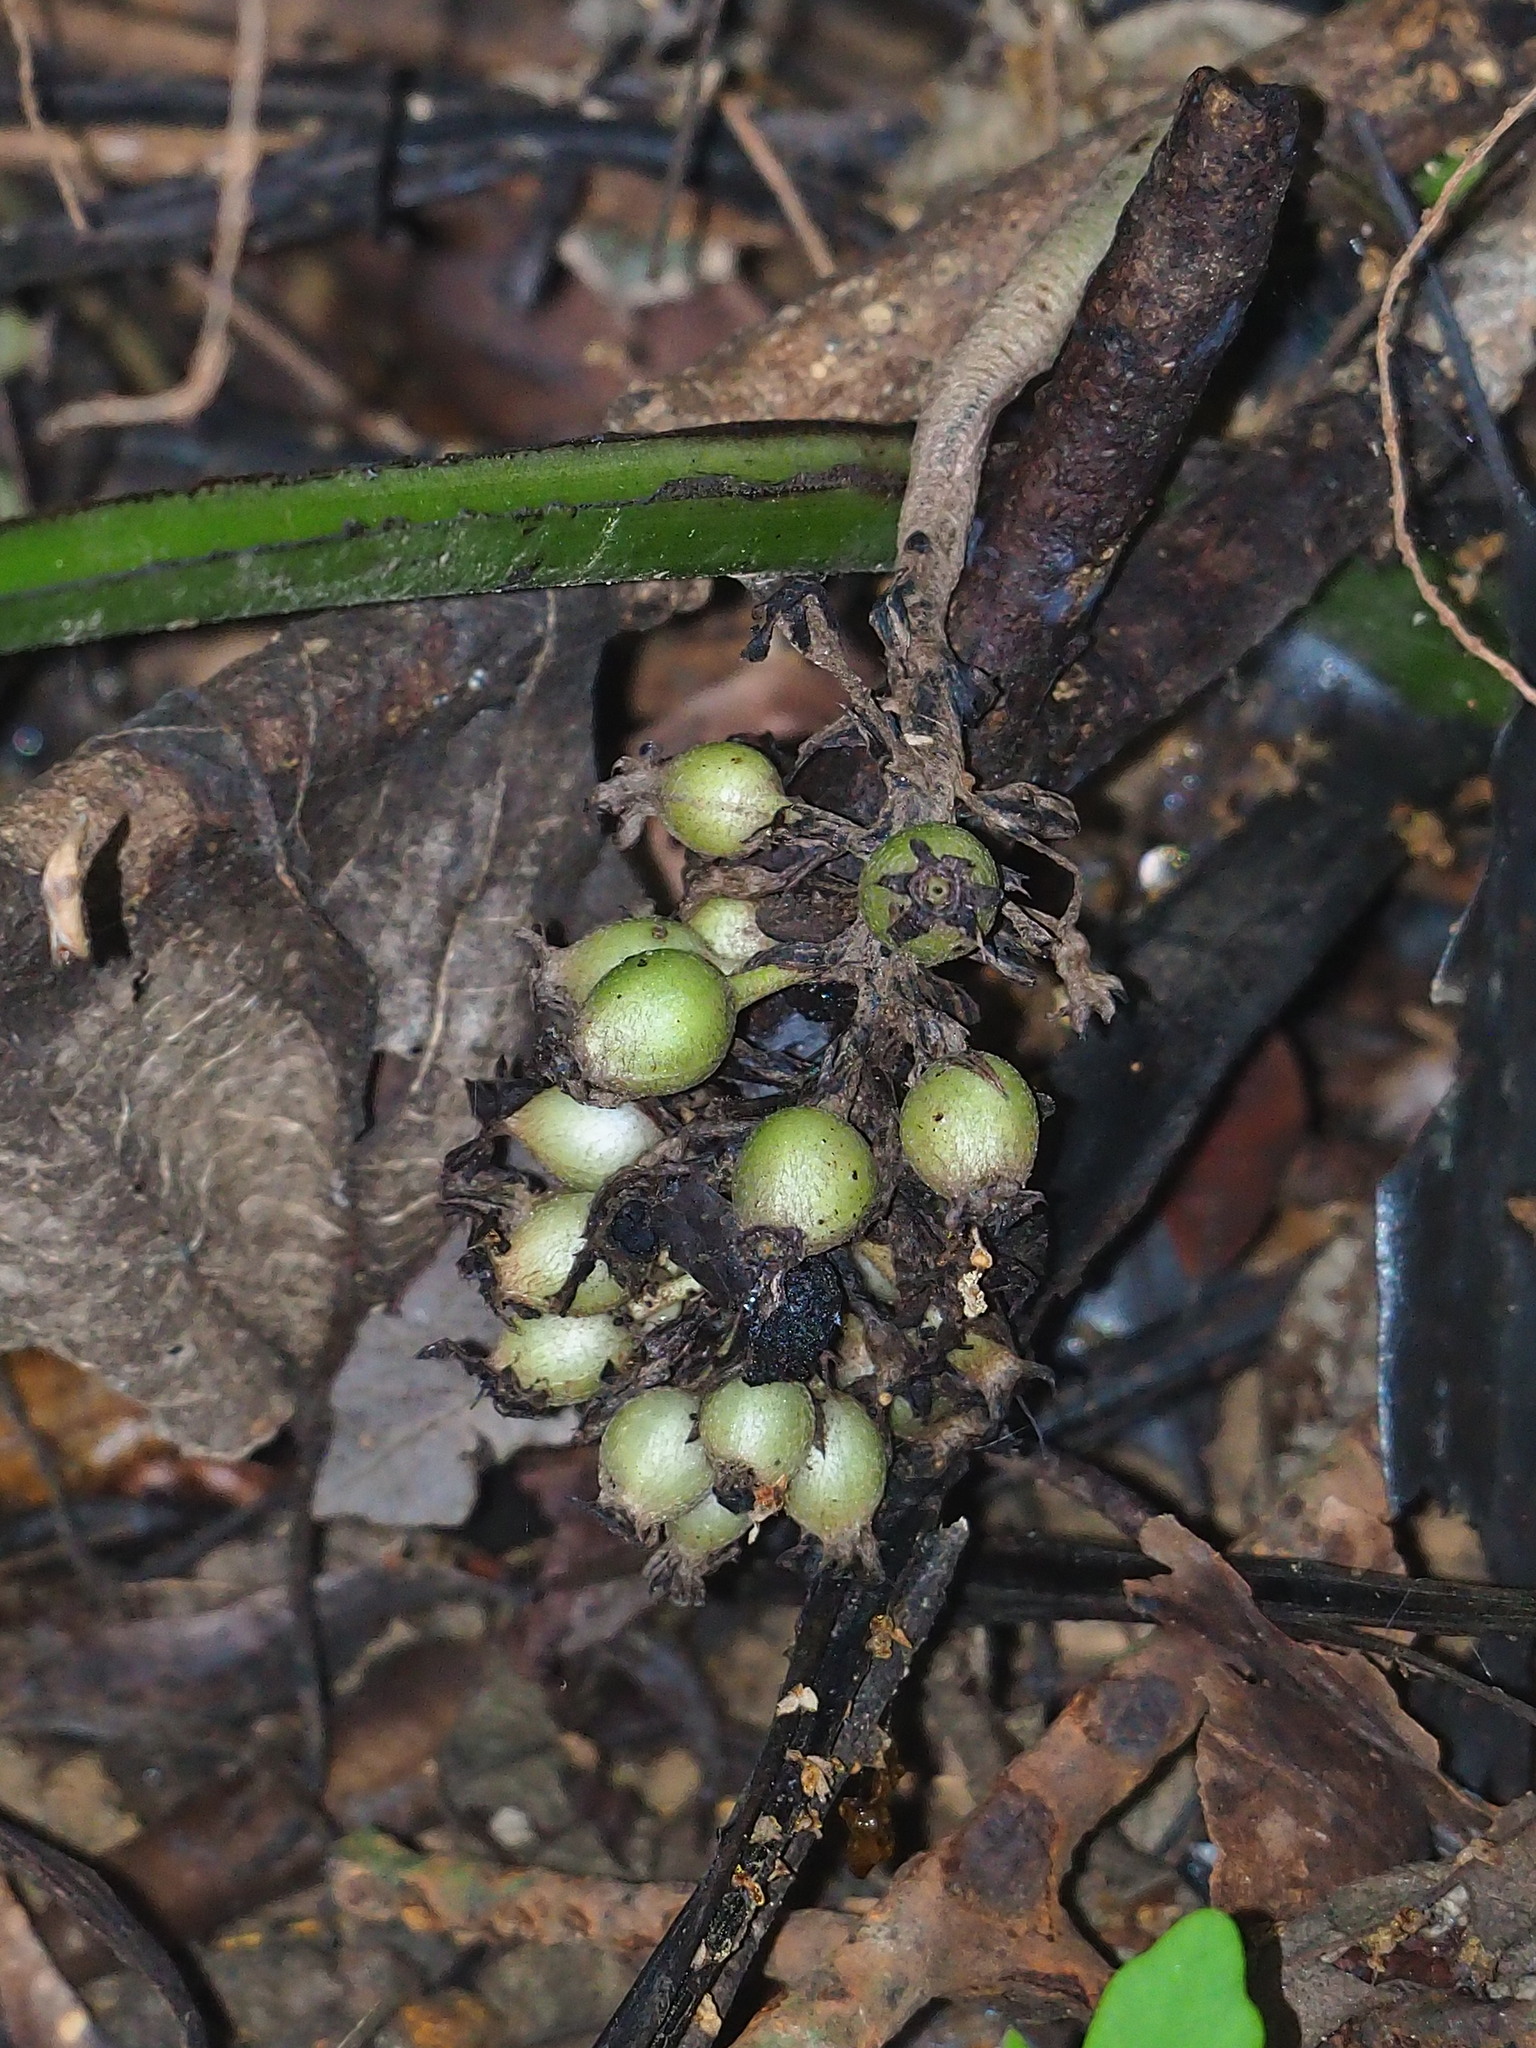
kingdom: Plantae
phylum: Tracheophyta
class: Liliopsida
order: Asparagales
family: Hypoxidaceae
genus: Curculigo
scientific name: Curculigo capitulata
